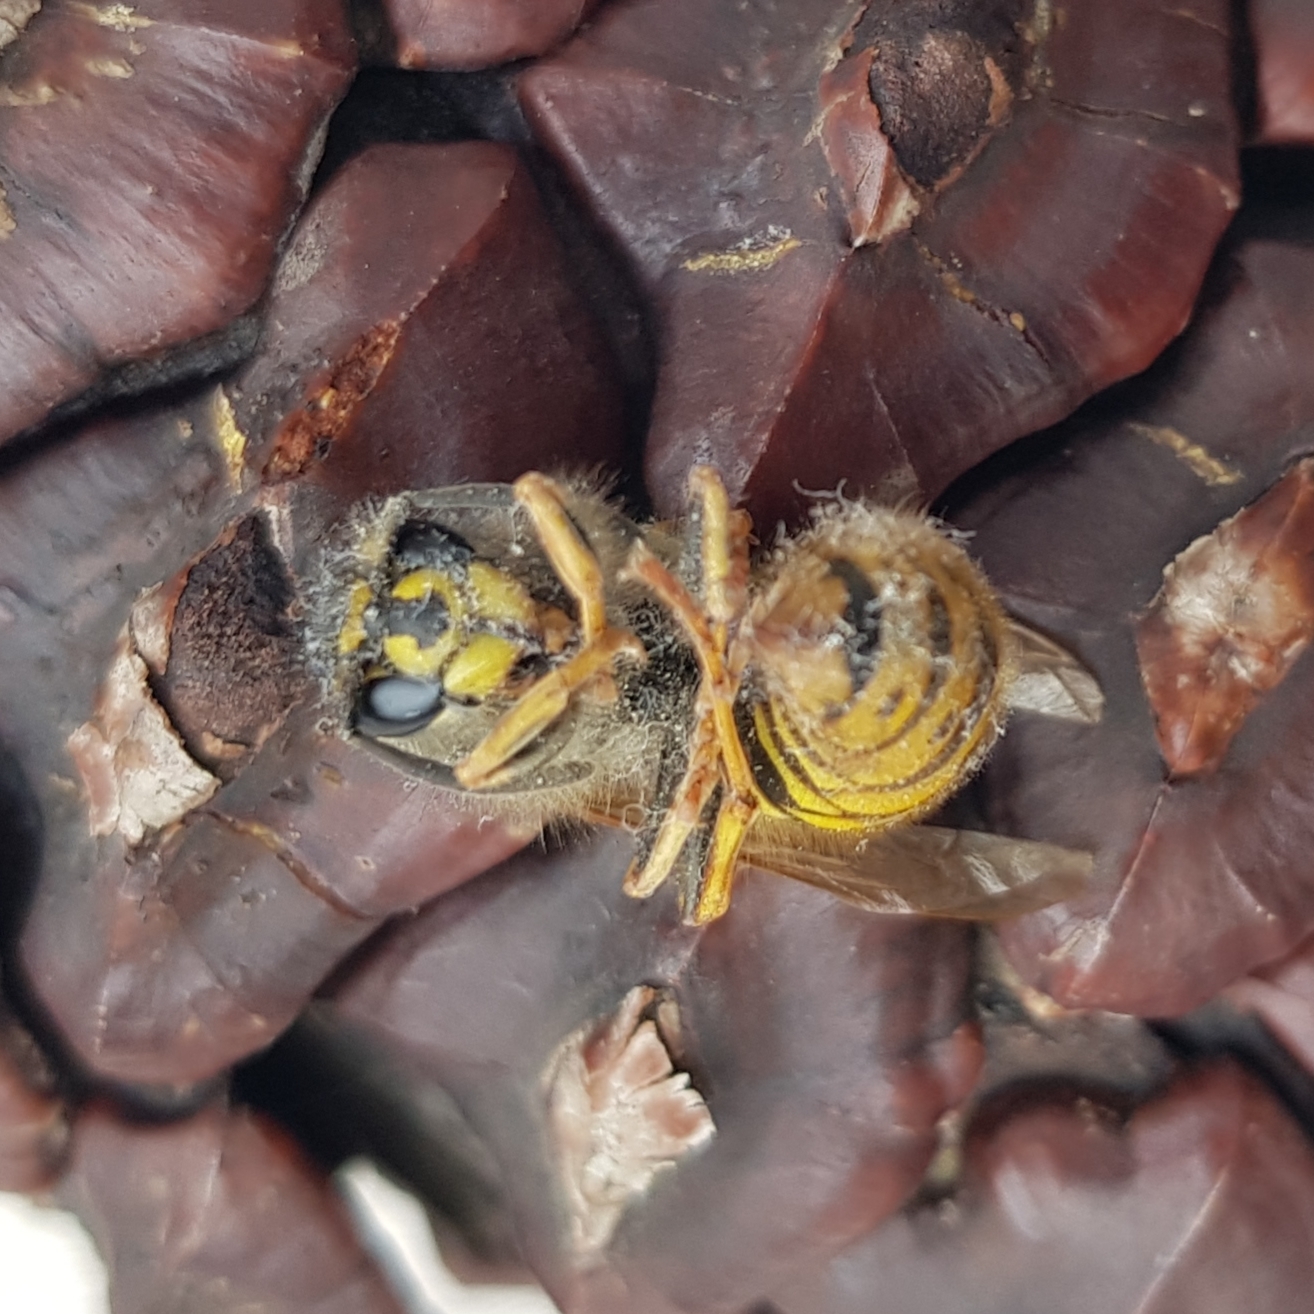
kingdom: Animalia
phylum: Arthropoda
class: Insecta
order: Hymenoptera
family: Vespidae
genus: Vespula
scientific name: Vespula vulgaris
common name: Common wasp
